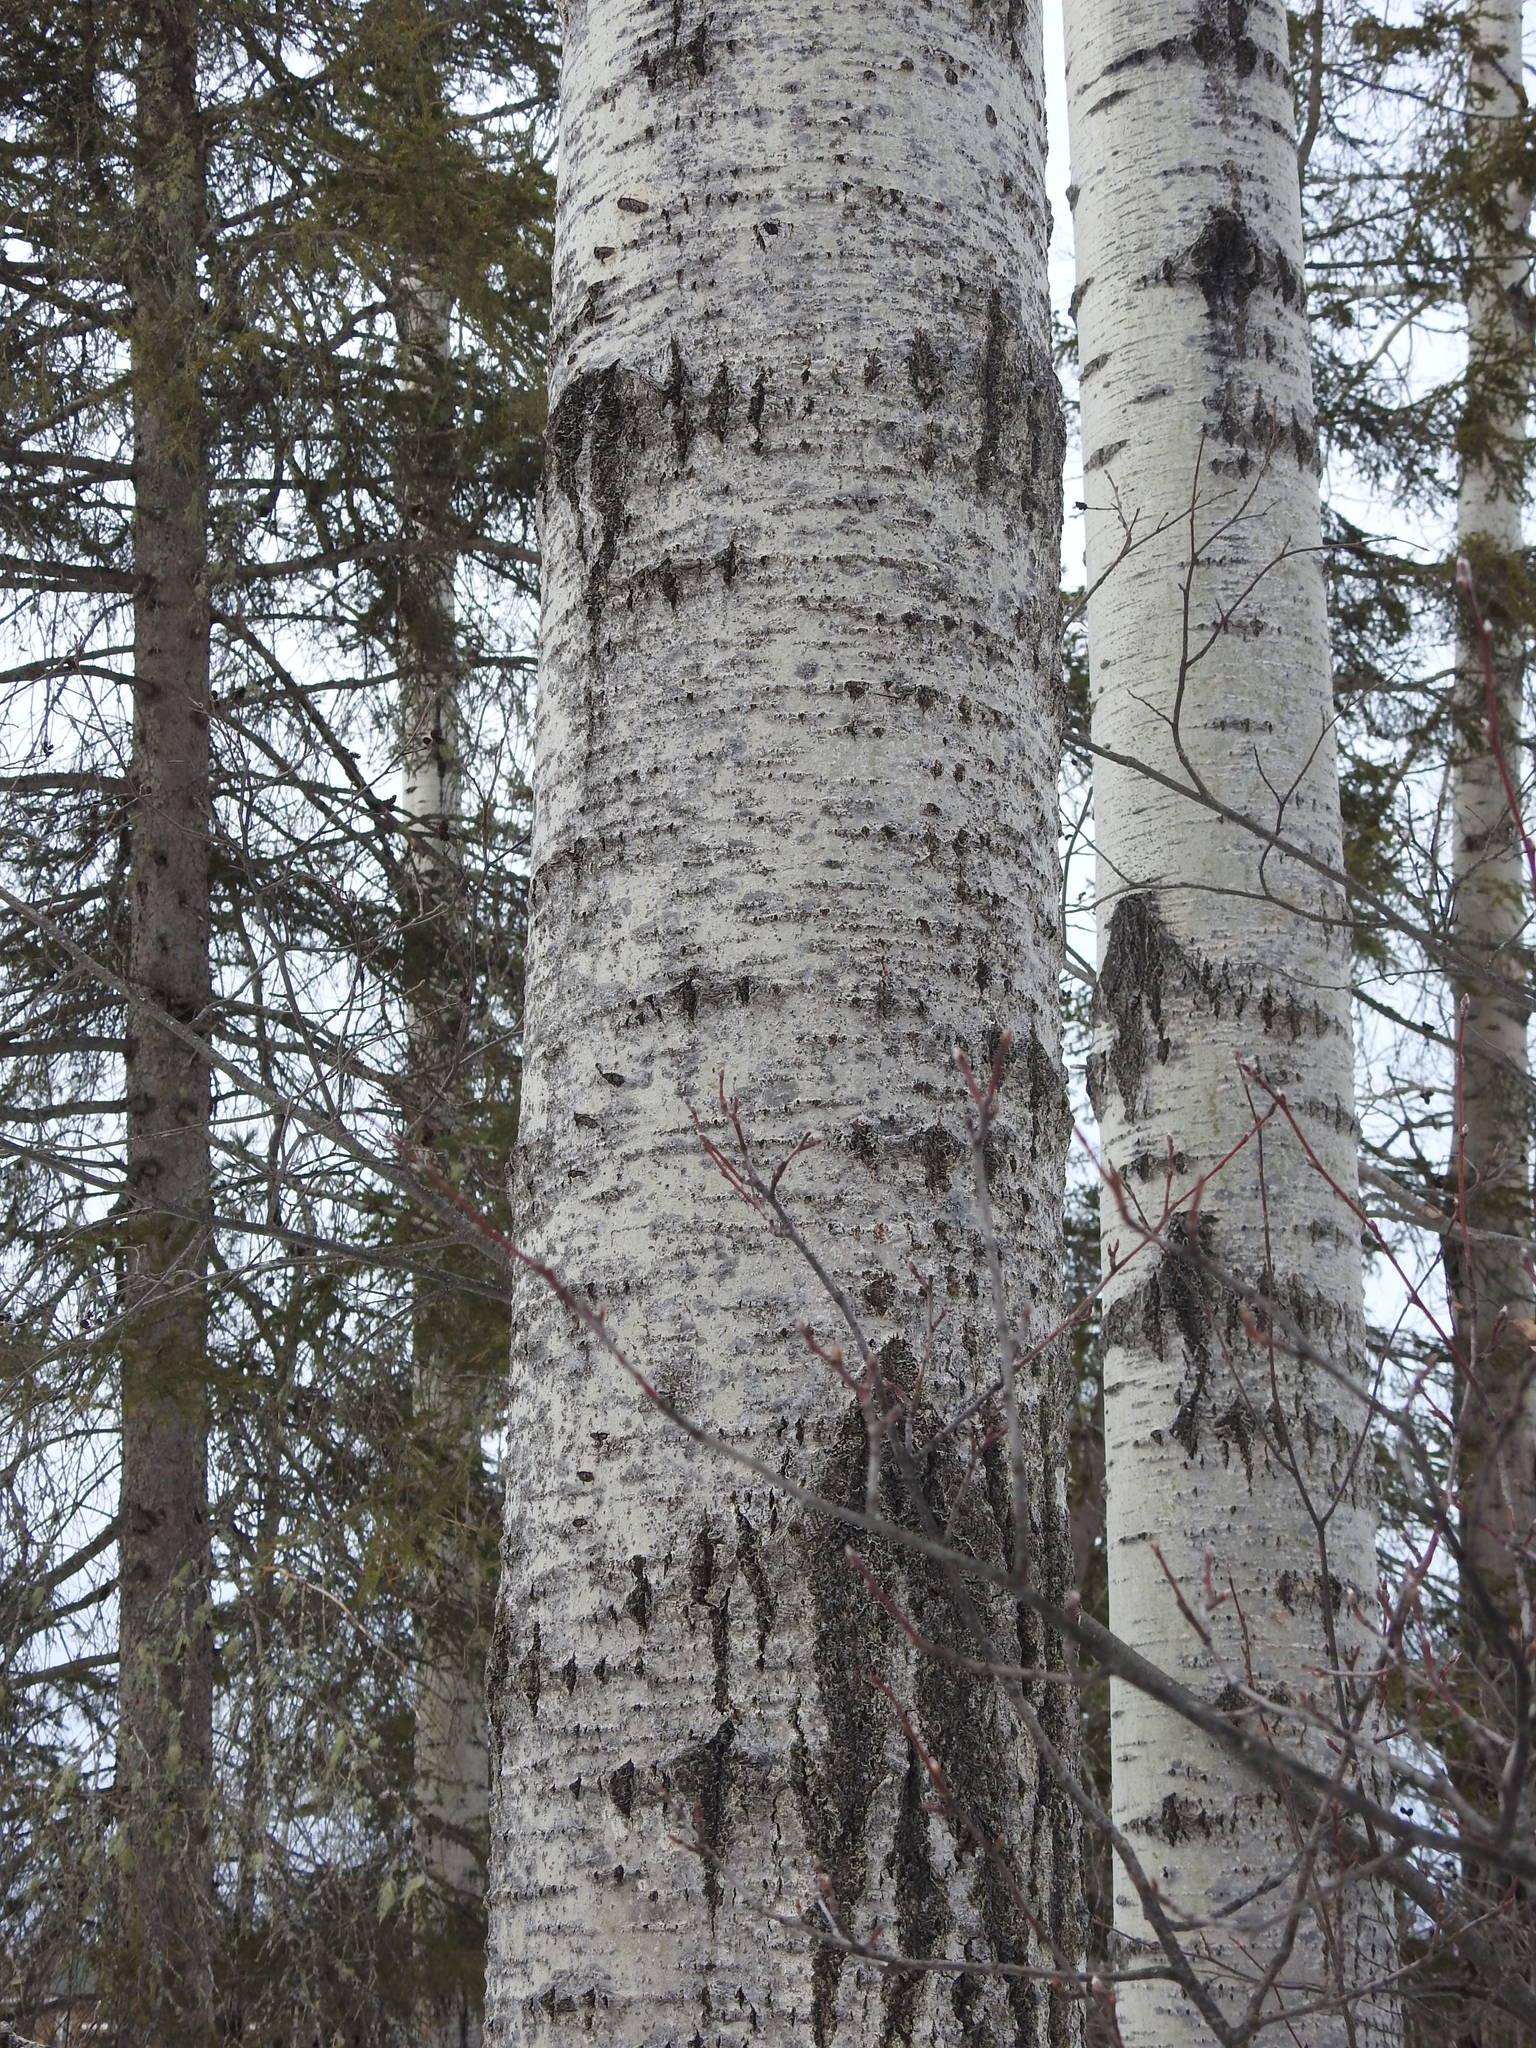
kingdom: Plantae
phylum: Tracheophyta
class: Magnoliopsida
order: Malpighiales
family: Salicaceae
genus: Populus
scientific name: Populus tremuloides
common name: Quaking aspen
